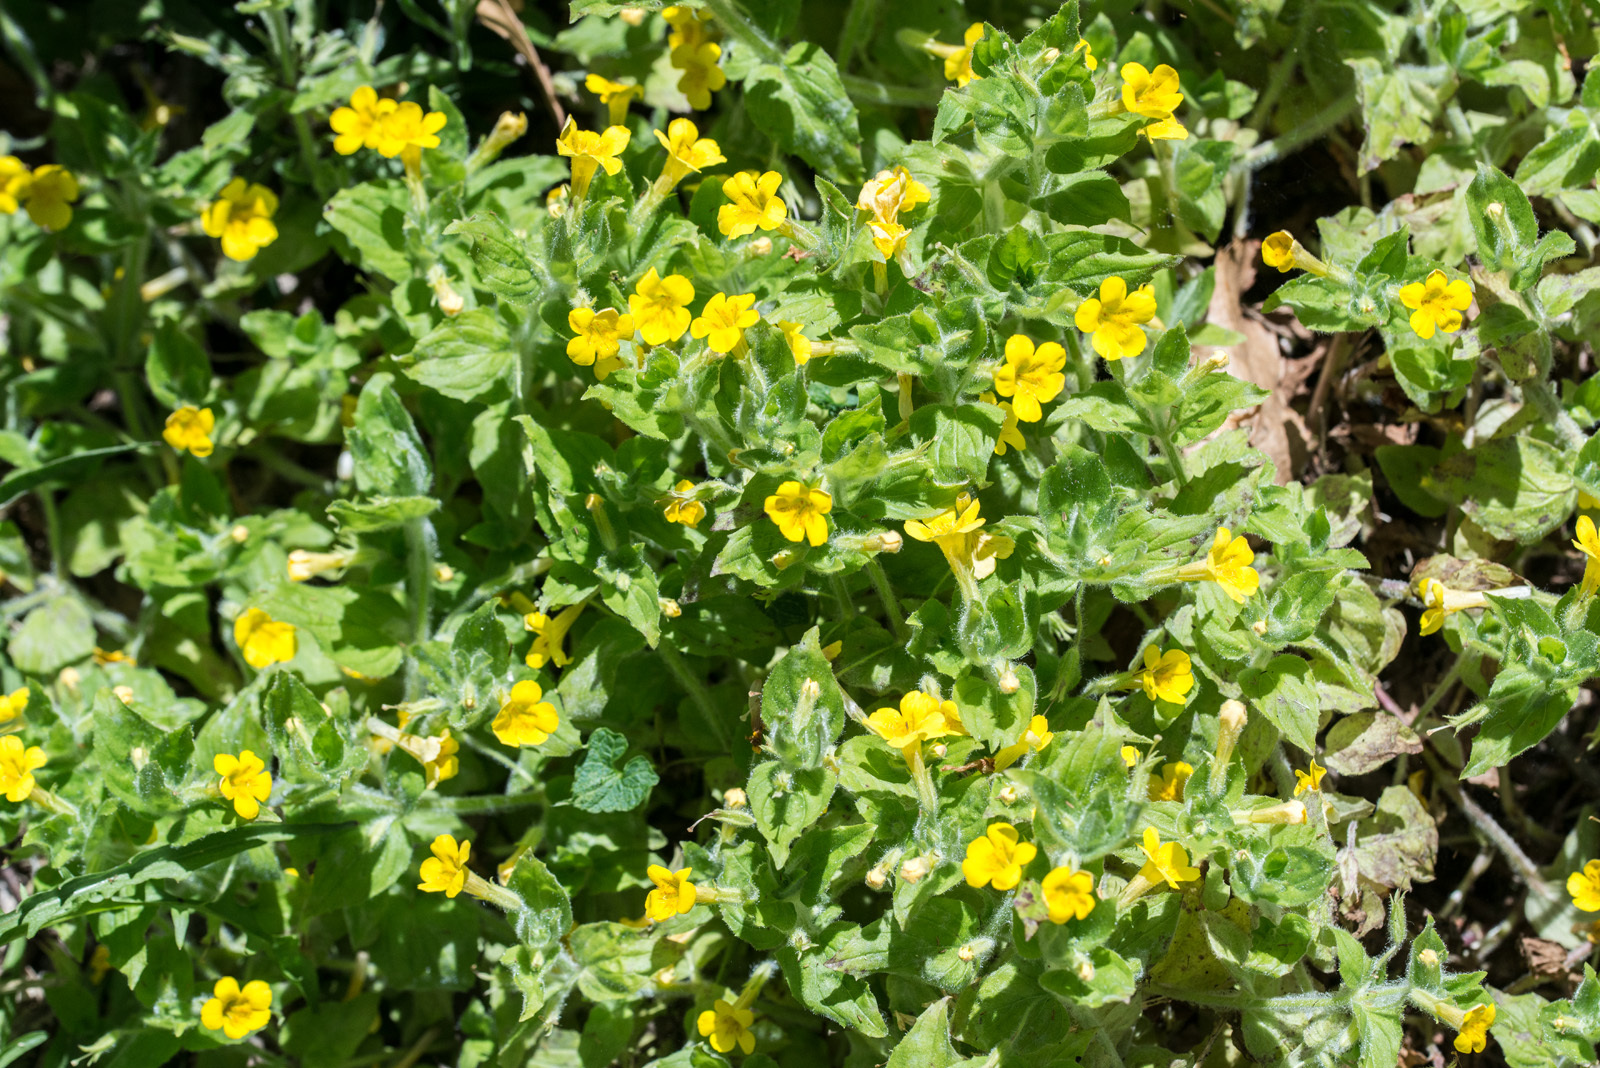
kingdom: Plantae
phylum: Tracheophyta
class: Magnoliopsida
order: Lamiales
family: Phrymaceae
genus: Erythranthe
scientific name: Erythranthe moschata
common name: Muskflower
